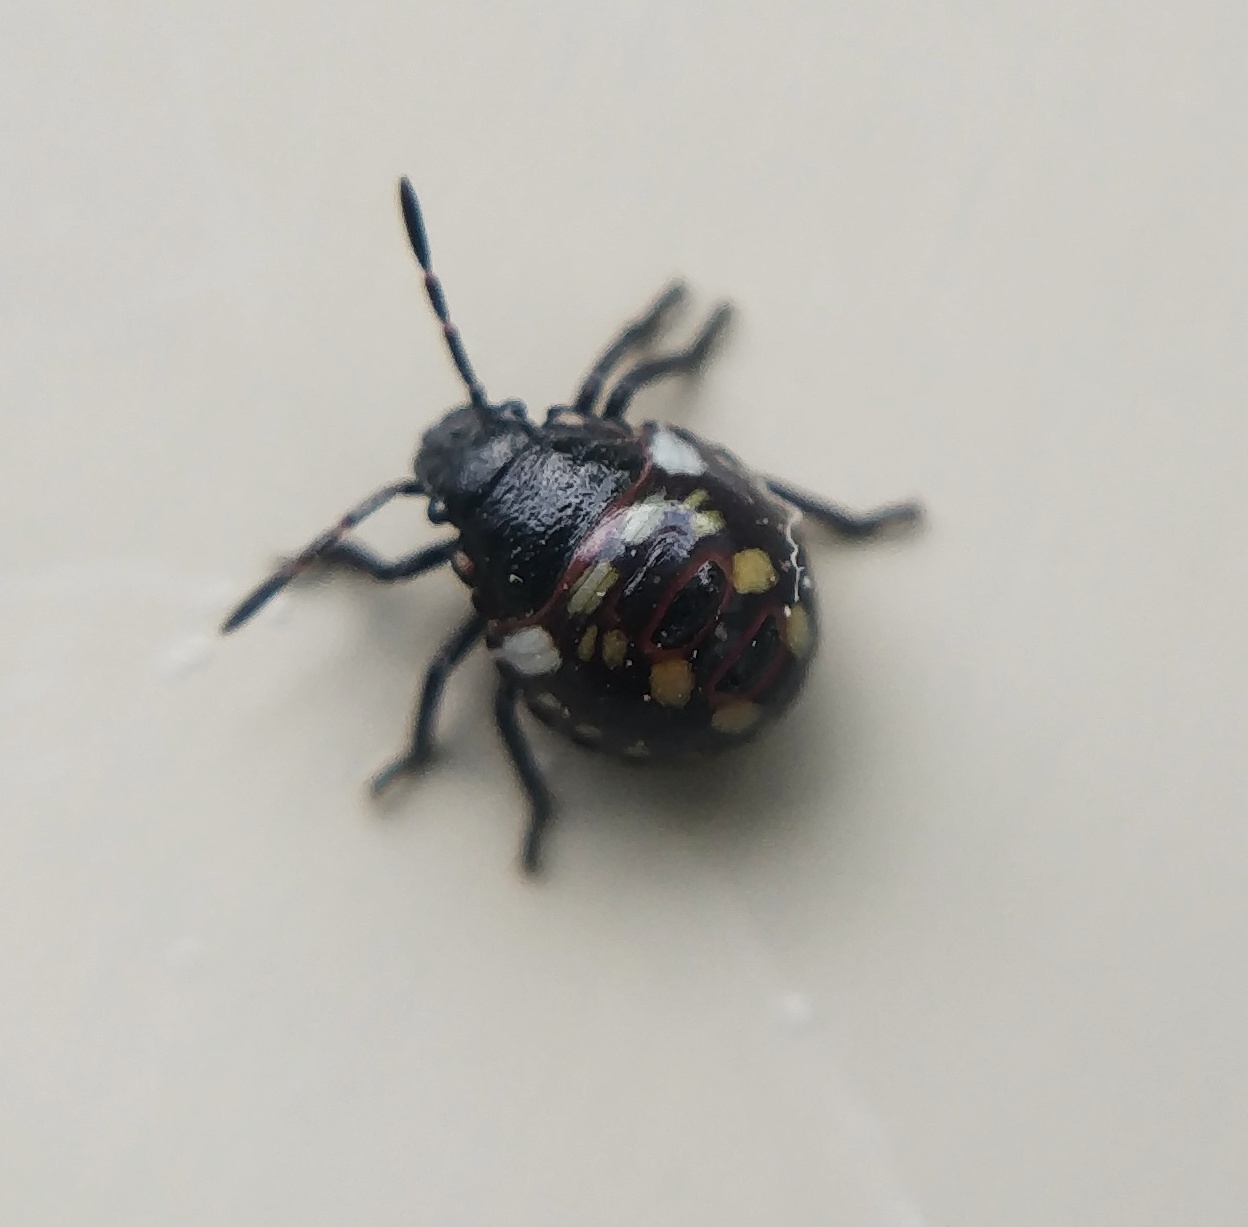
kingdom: Animalia
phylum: Arthropoda
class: Insecta
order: Hemiptera
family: Pentatomidae
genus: Nezara
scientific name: Nezara viridula
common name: Southern green stink bug
